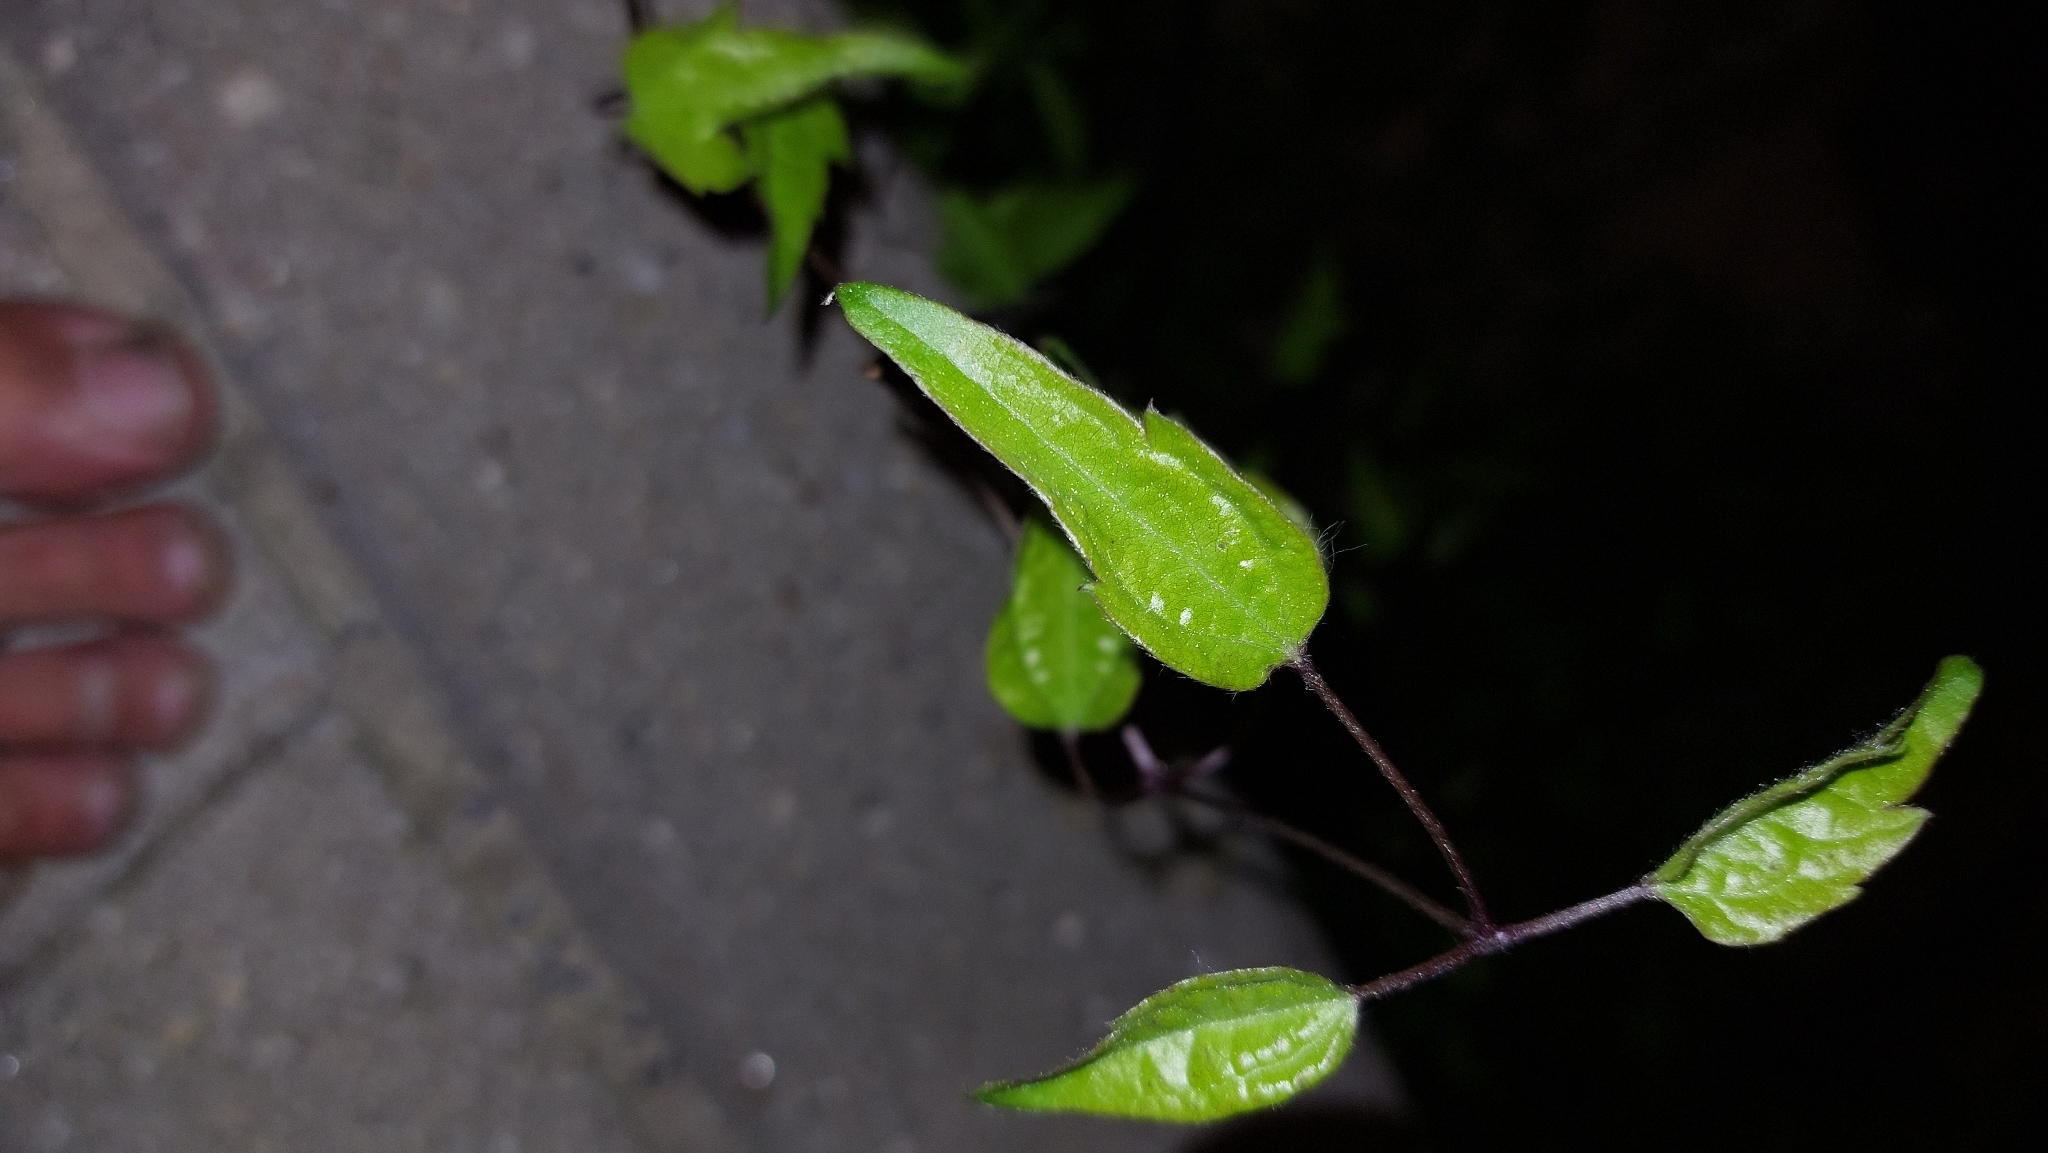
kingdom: Plantae
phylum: Tracheophyta
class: Magnoliopsida
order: Ranunculales
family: Ranunculaceae
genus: Clematis
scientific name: Clematis vitalba
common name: Evergreen clematis
